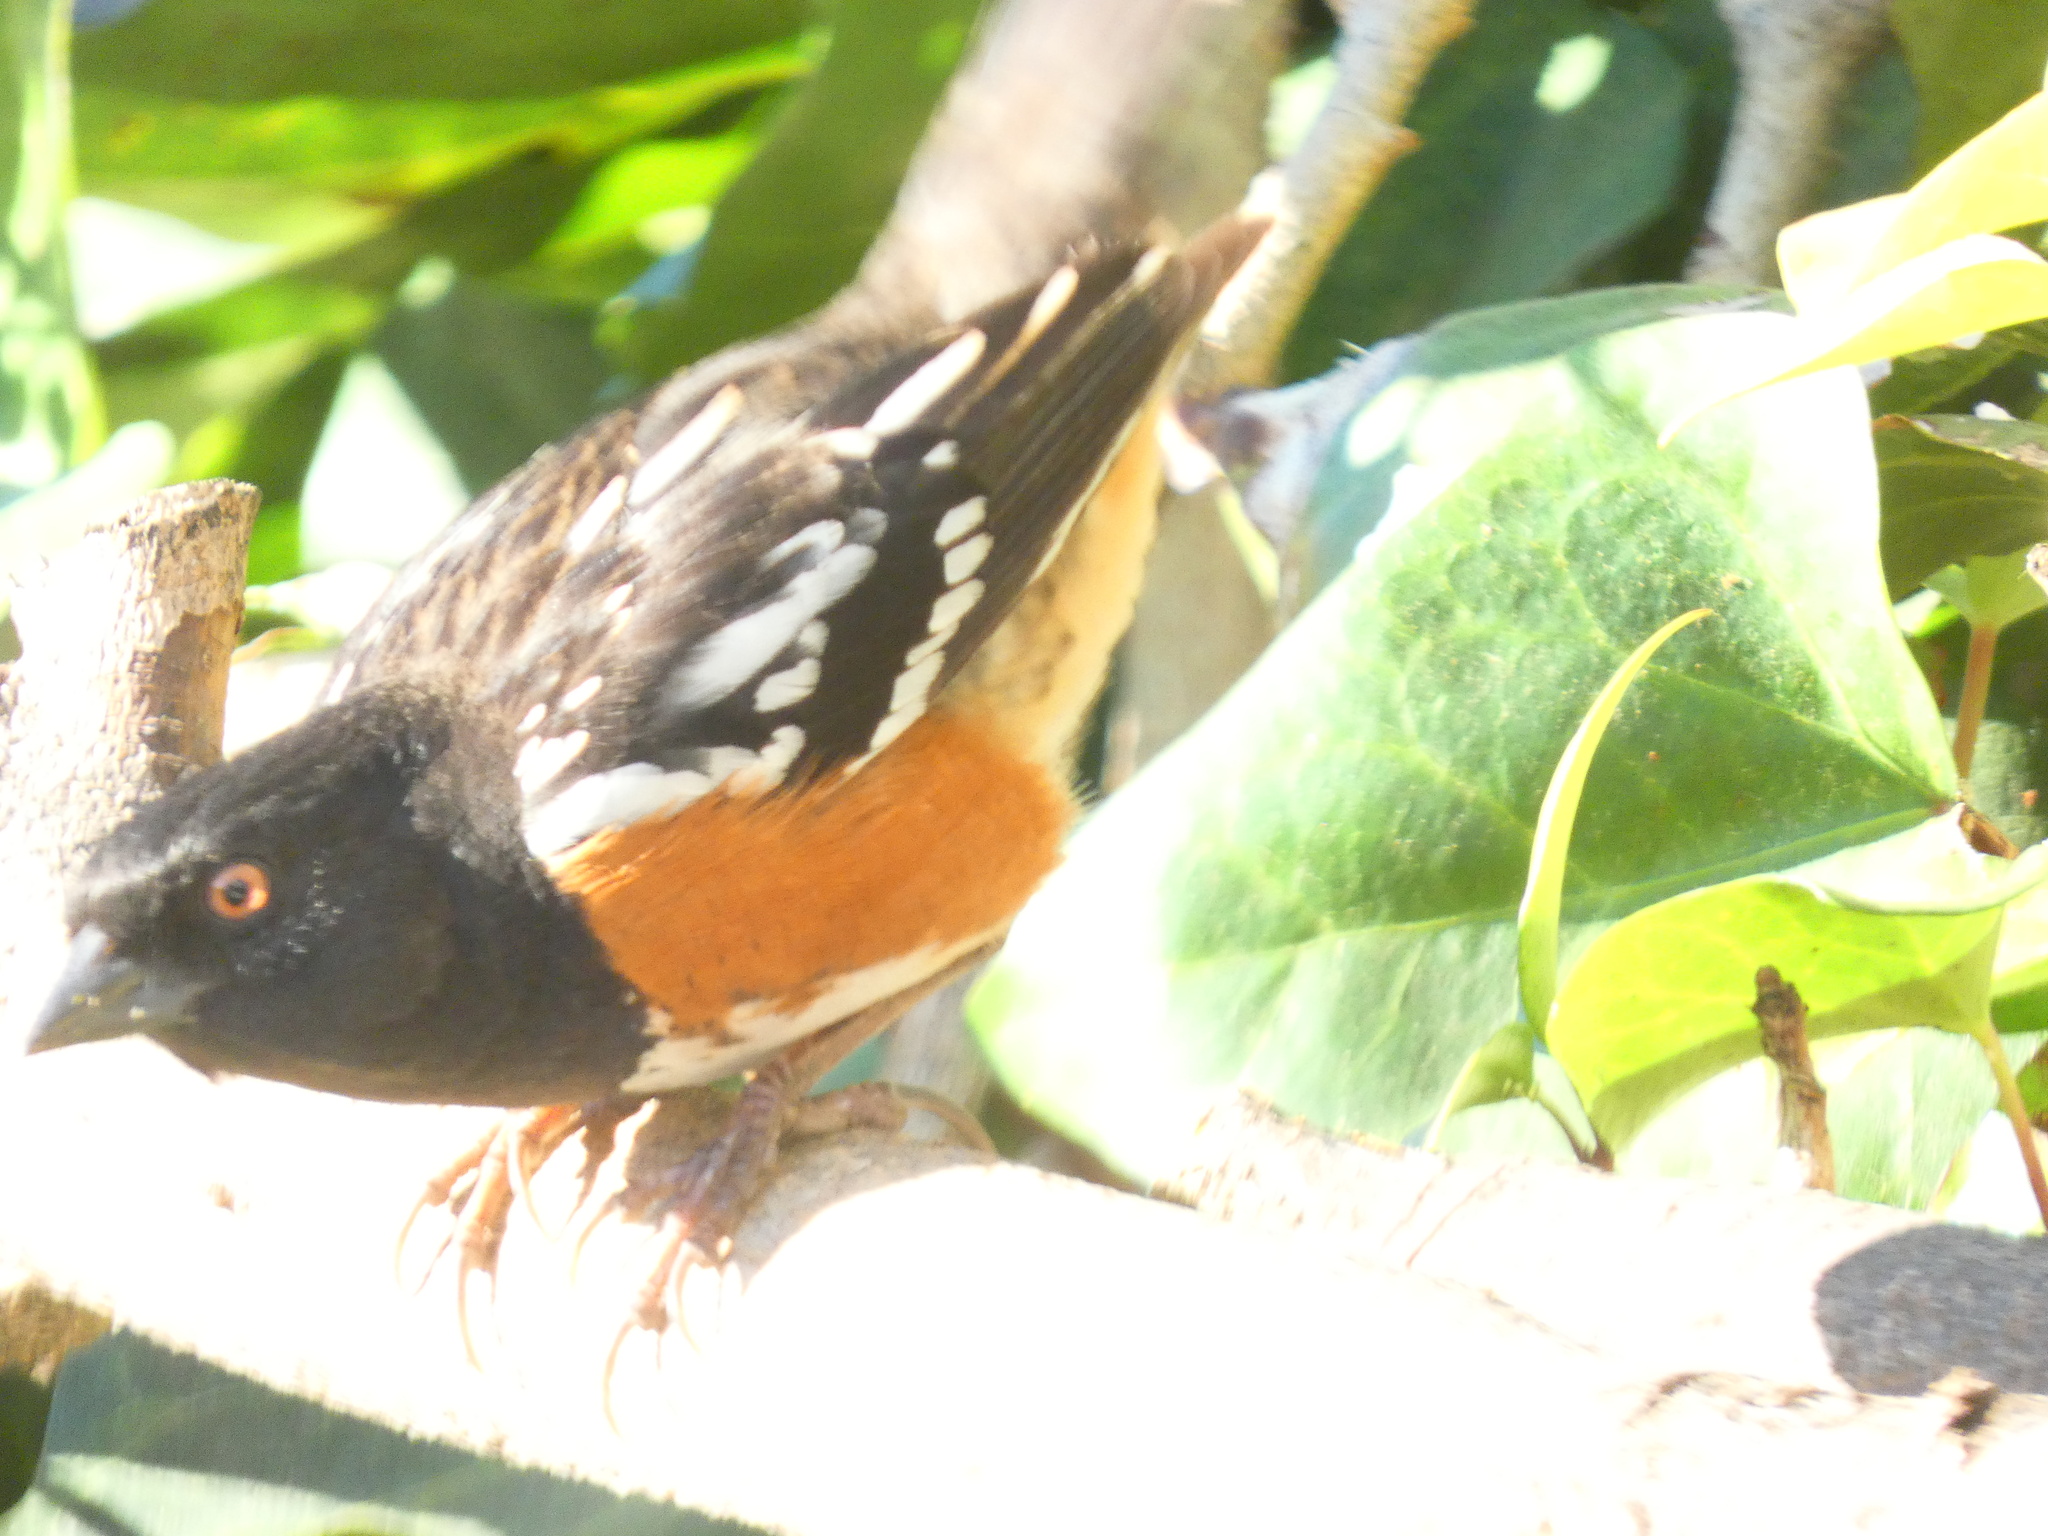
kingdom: Animalia
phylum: Chordata
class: Aves
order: Passeriformes
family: Passerellidae
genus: Pipilo
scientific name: Pipilo maculatus
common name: Spotted towhee
